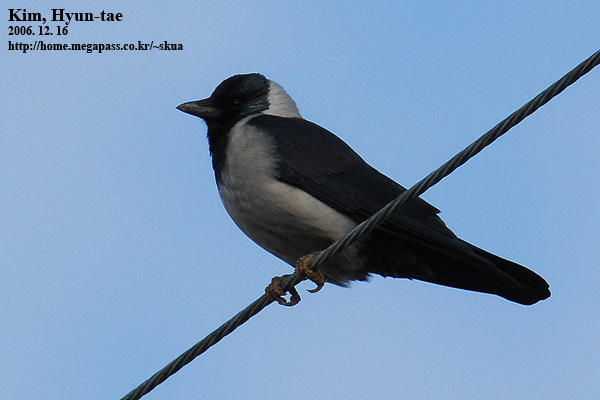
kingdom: Animalia
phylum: Chordata
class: Aves
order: Passeriformes
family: Corvidae
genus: Coloeus
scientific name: Coloeus dauuricus
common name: Daurian jackdaw
